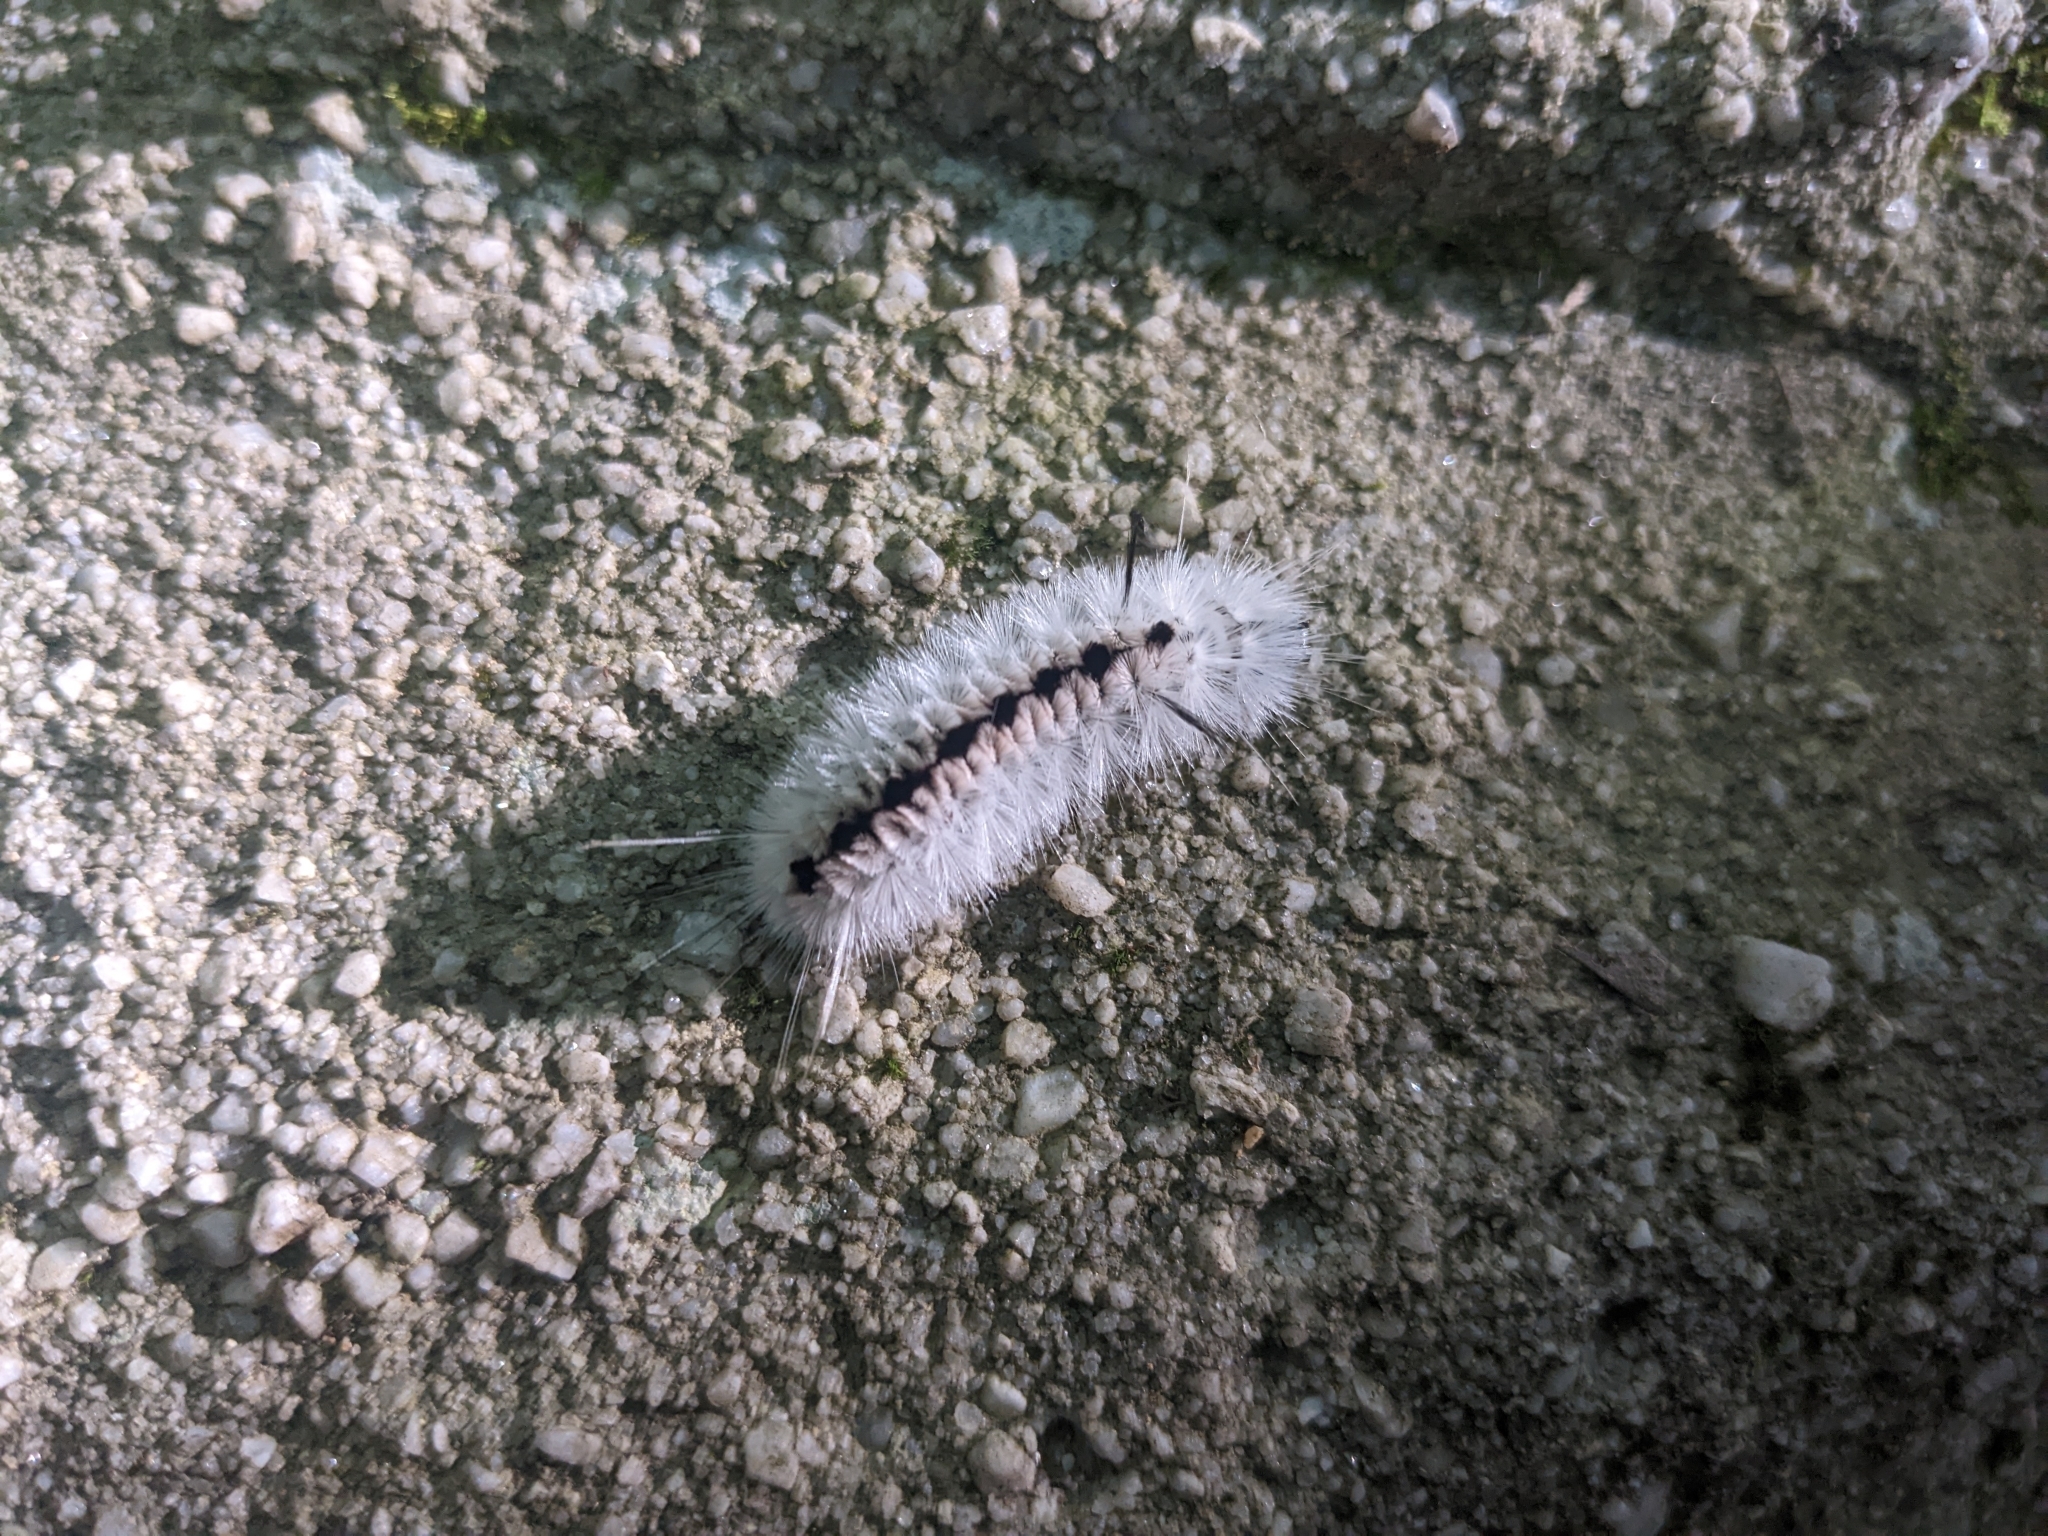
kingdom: Animalia
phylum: Arthropoda
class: Insecta
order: Lepidoptera
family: Erebidae
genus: Lophocampa
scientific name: Lophocampa caryae
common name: Hickory tussock moth
